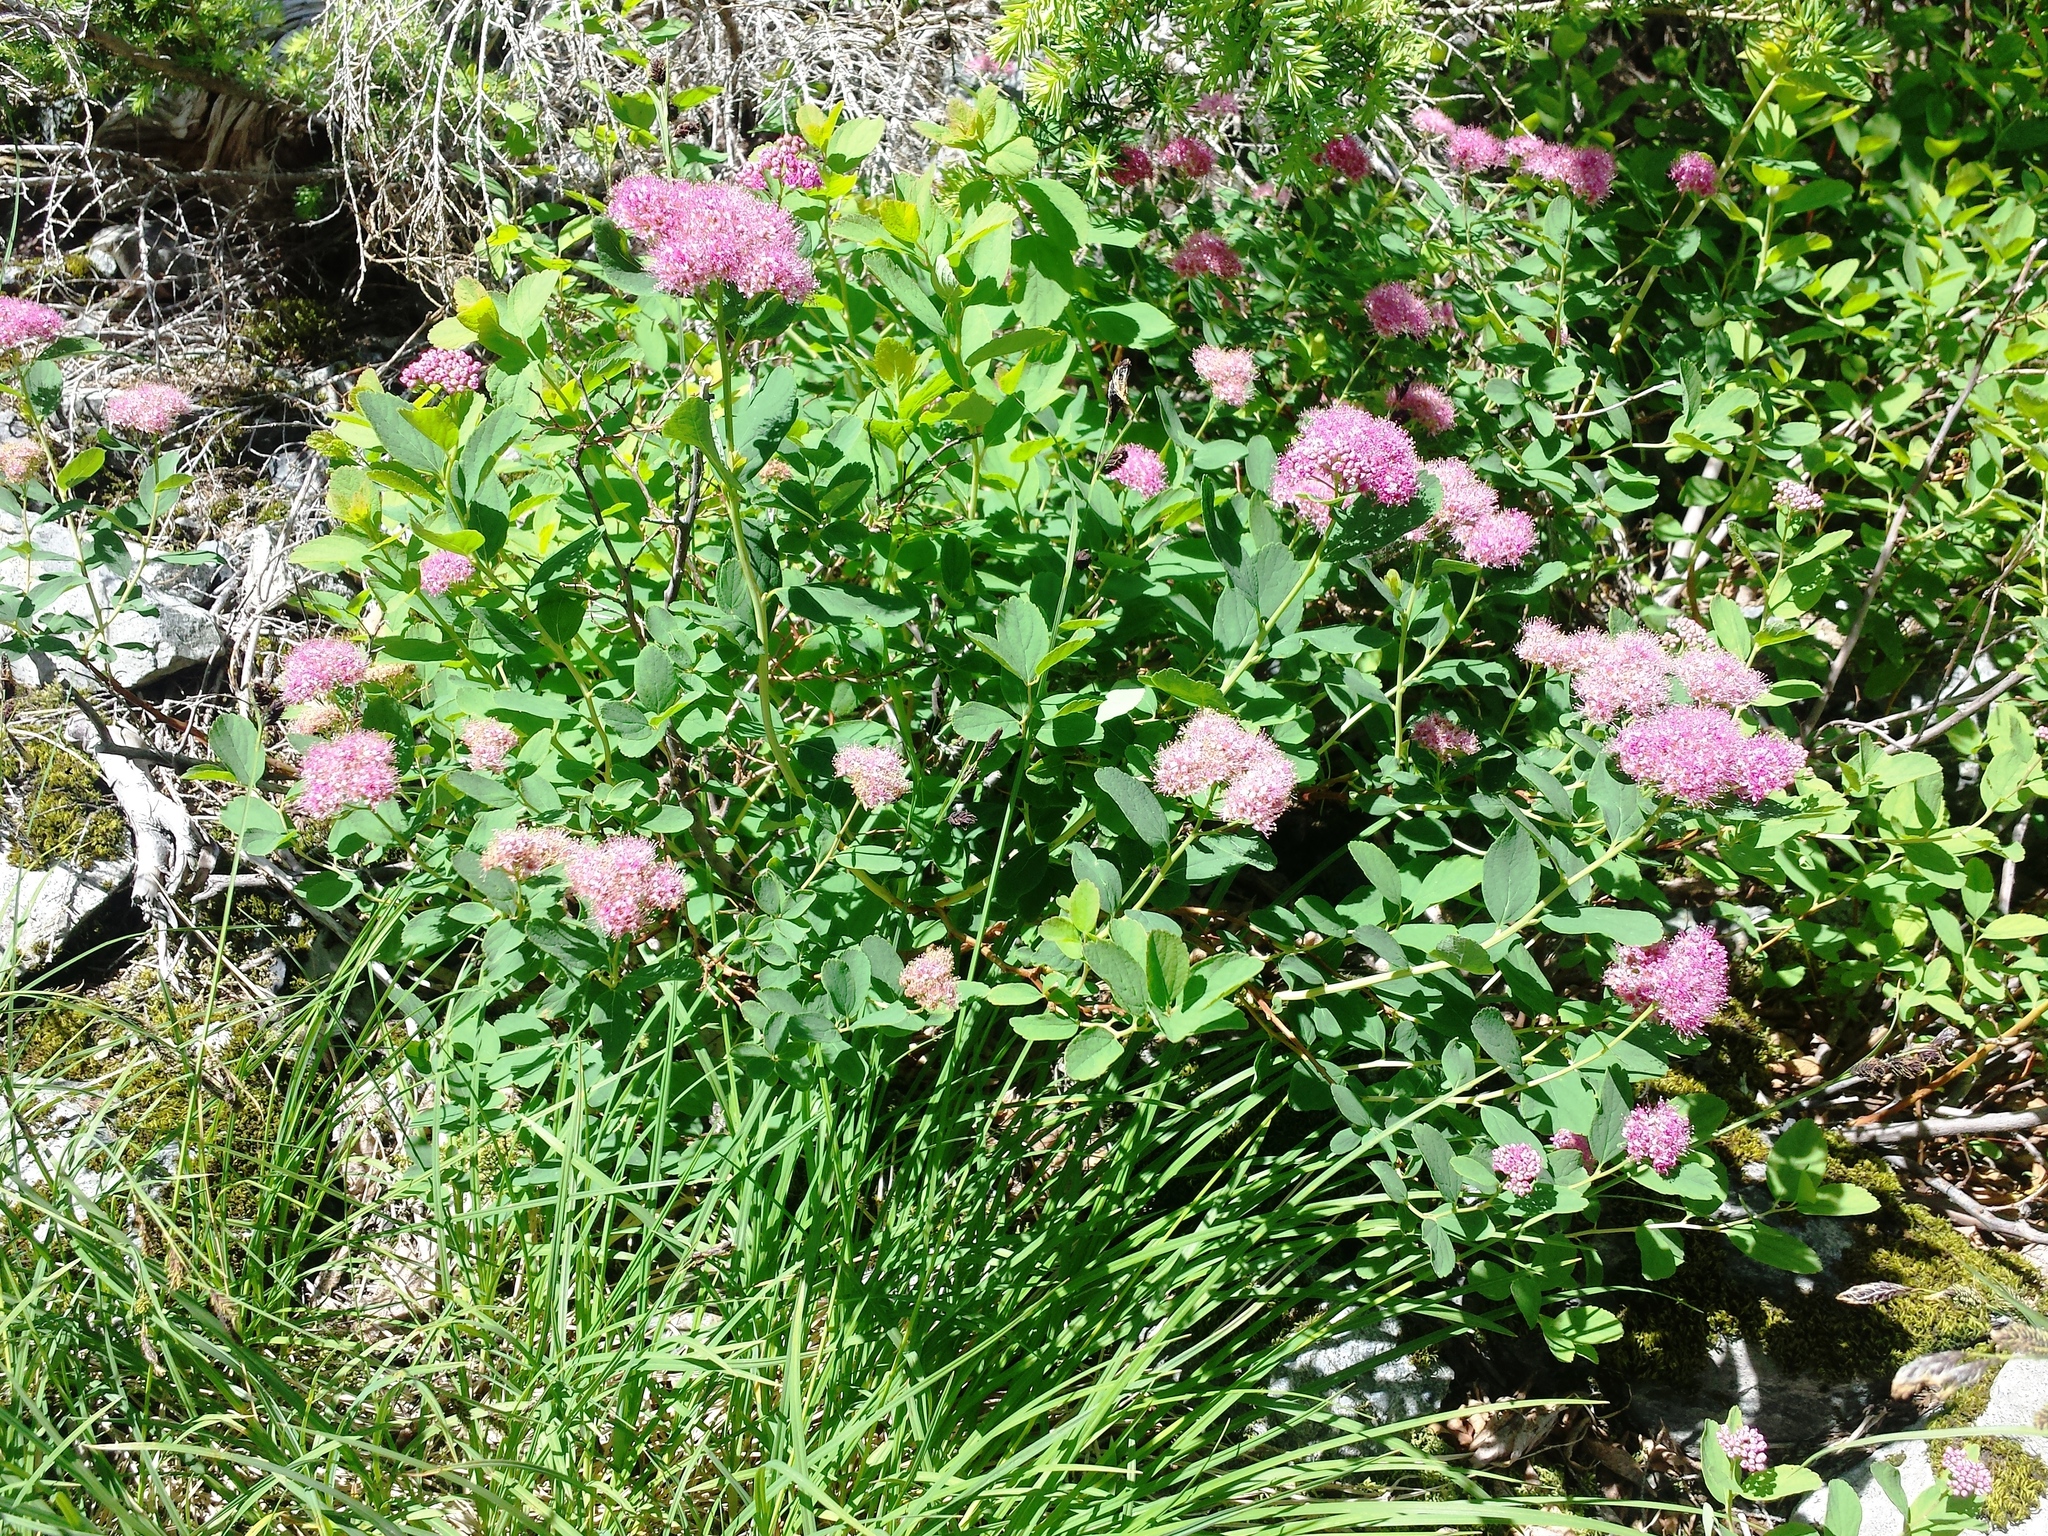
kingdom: Plantae
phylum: Tracheophyta
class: Magnoliopsida
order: Rosales
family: Rosaceae
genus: Spiraea
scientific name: Spiraea splendens
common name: Subalpine meadowsweet
